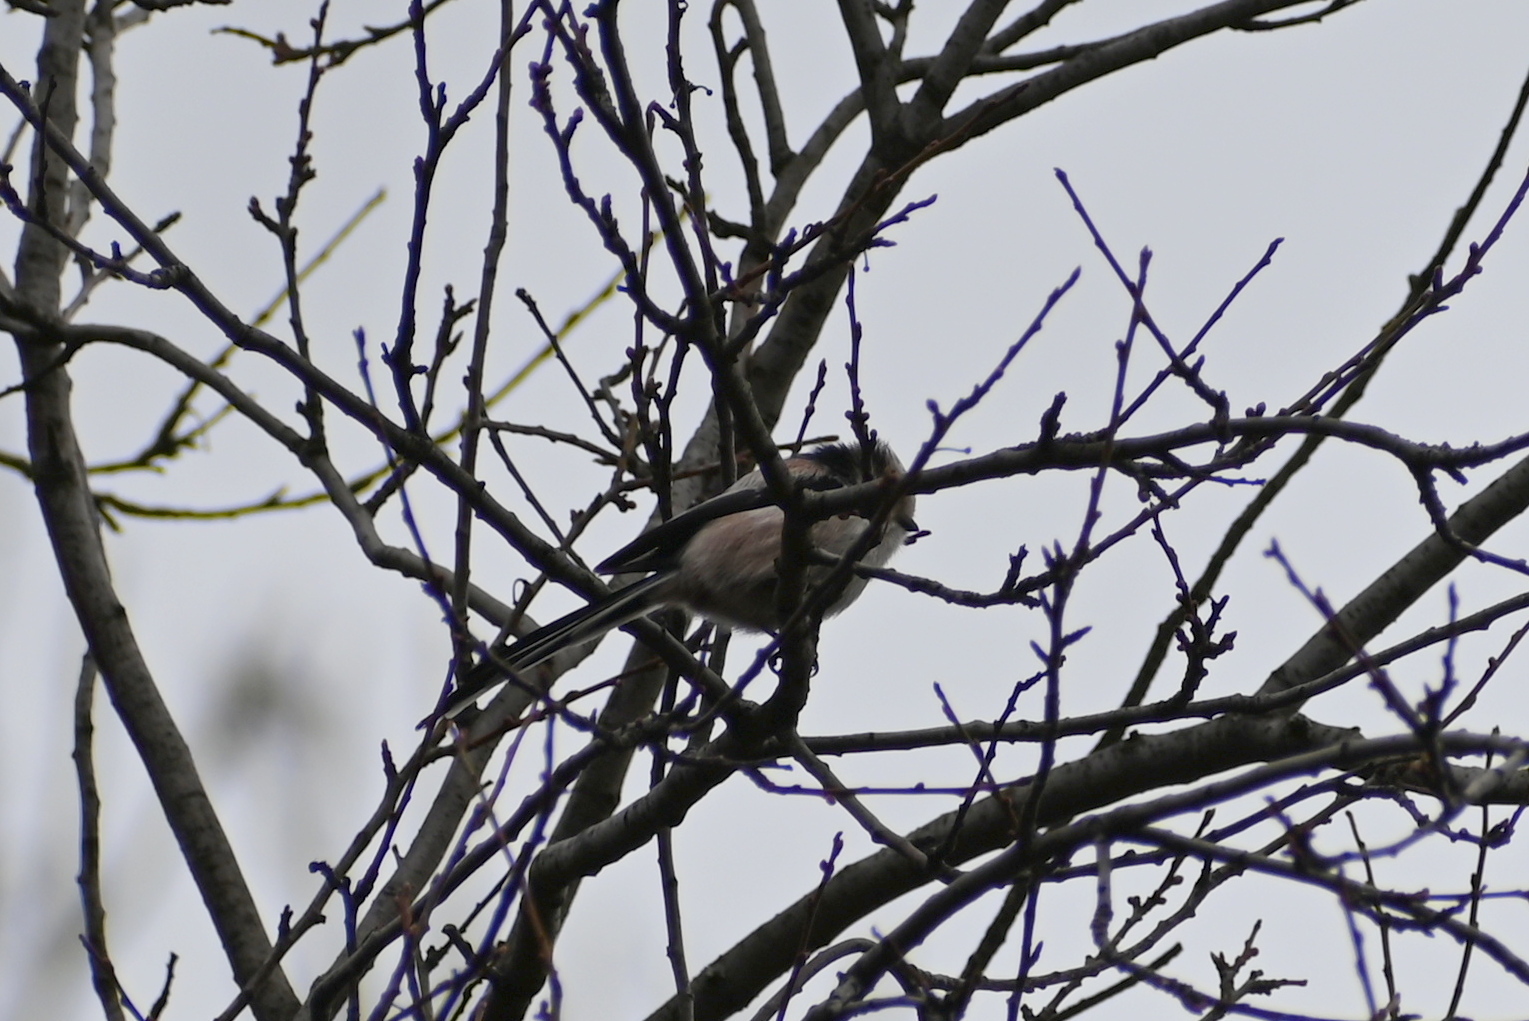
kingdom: Animalia
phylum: Chordata
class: Aves
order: Passeriformes
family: Aegithalidae
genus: Aegithalos
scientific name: Aegithalos caudatus
